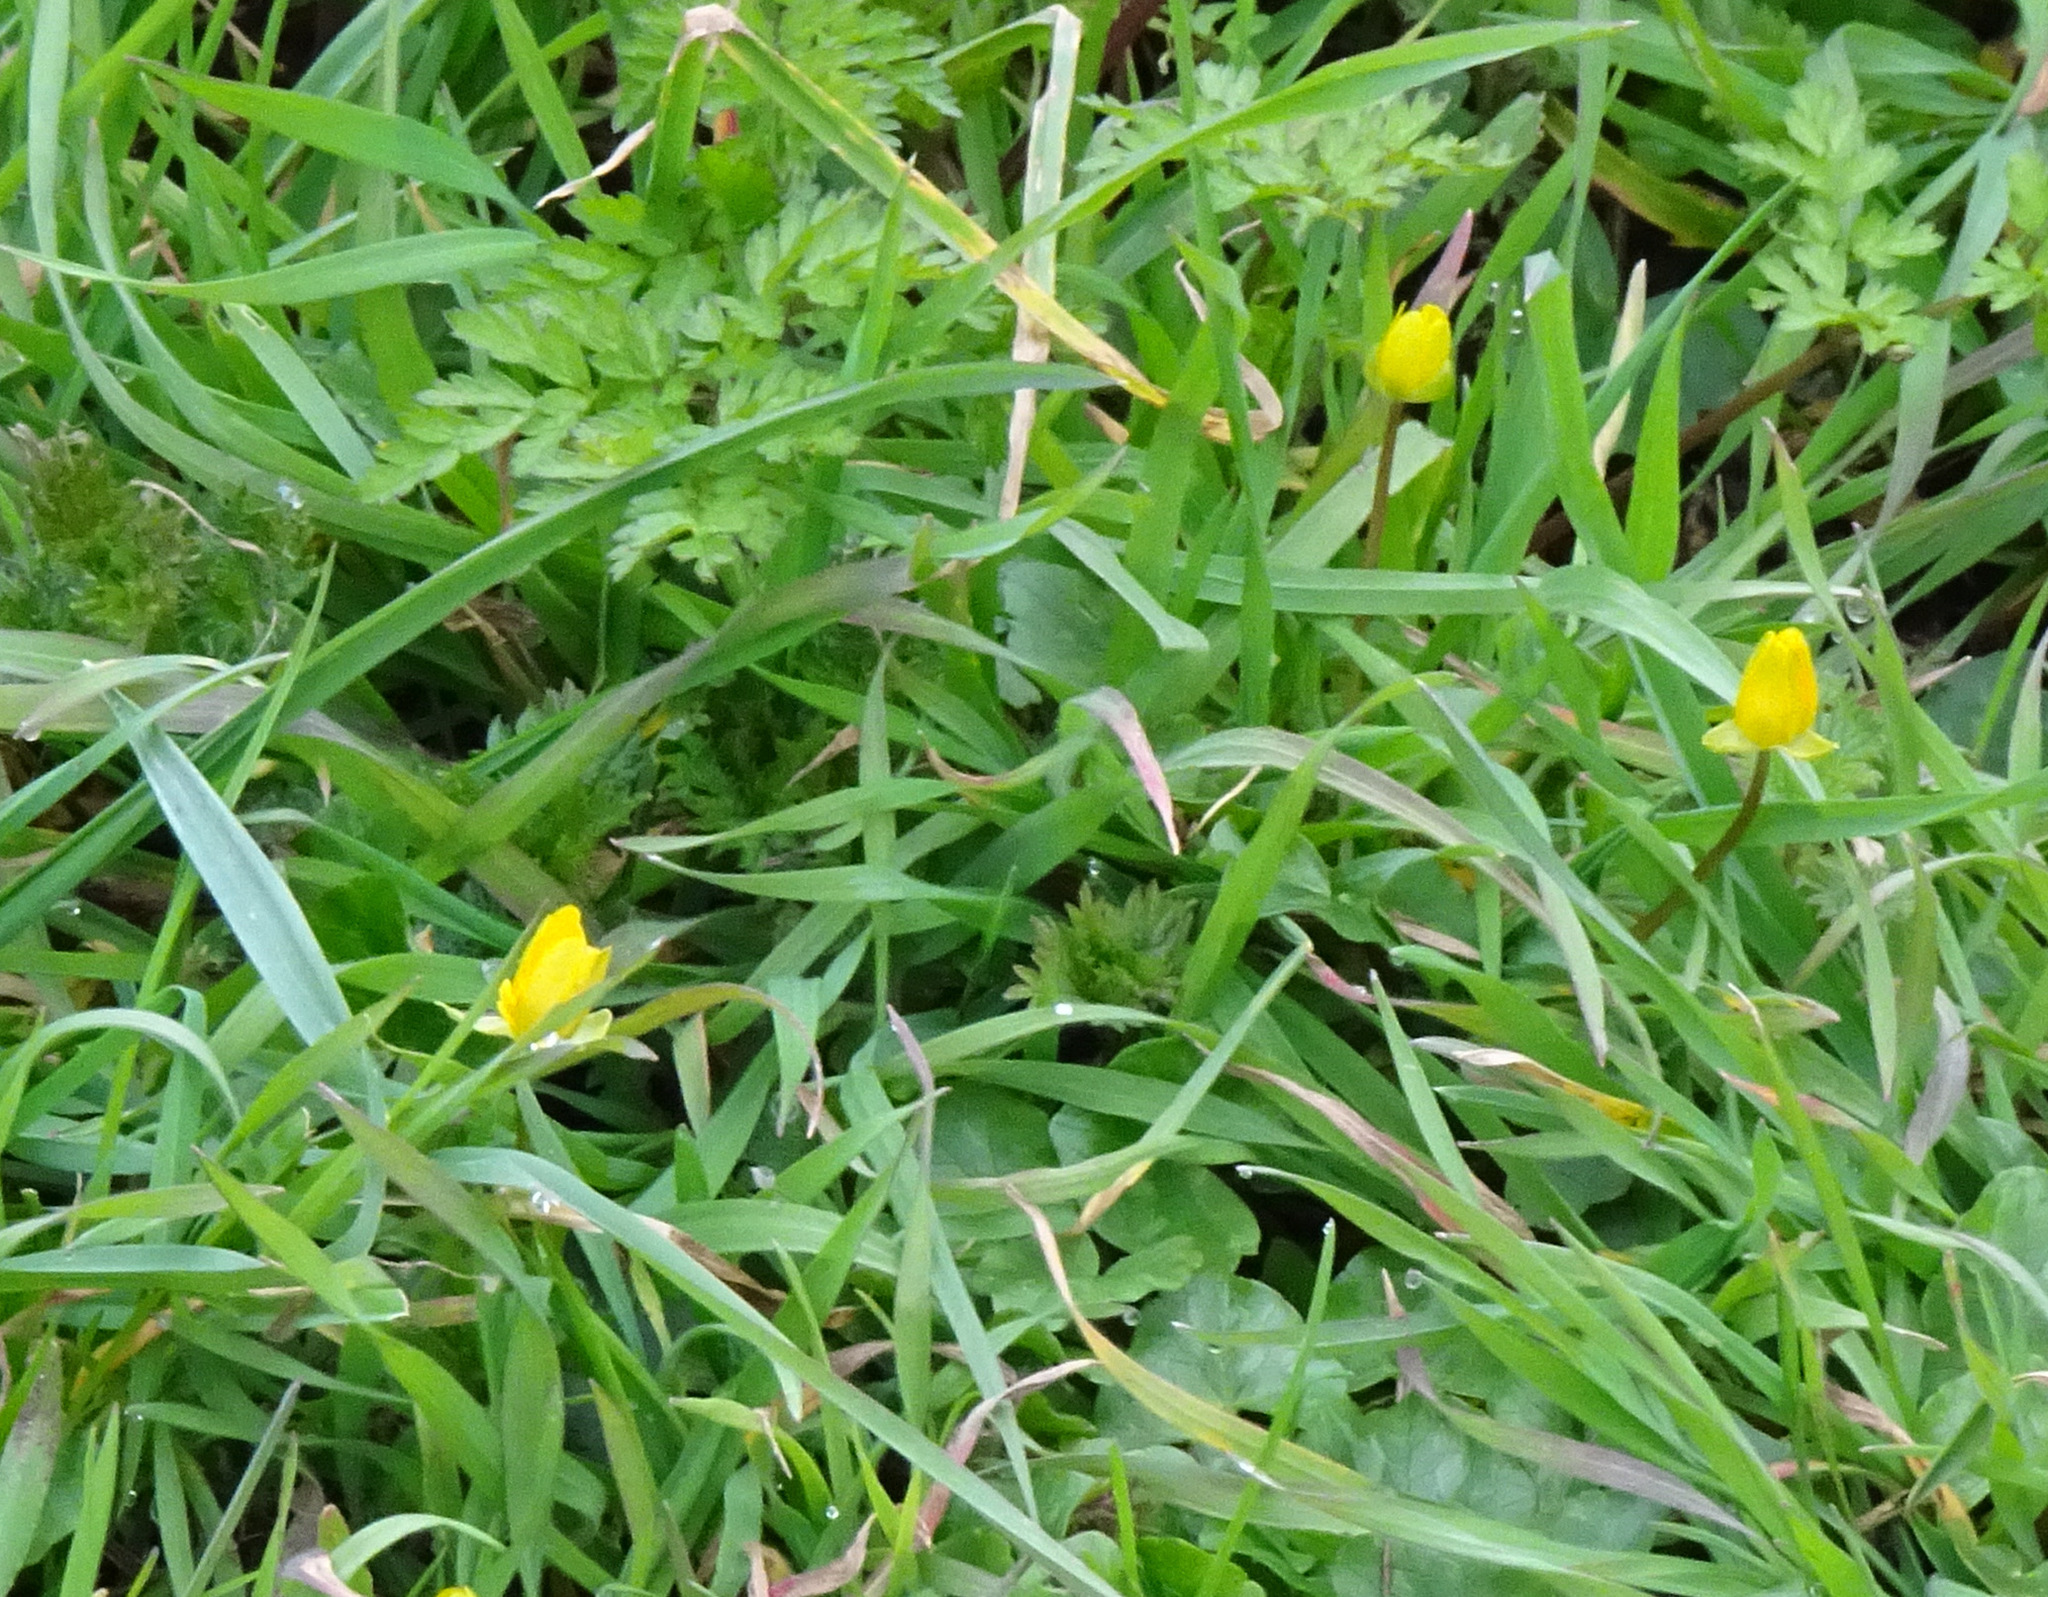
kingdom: Plantae
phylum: Tracheophyta
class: Magnoliopsida
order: Ranunculales
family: Ranunculaceae
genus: Ficaria
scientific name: Ficaria verna
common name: Lesser celandine
